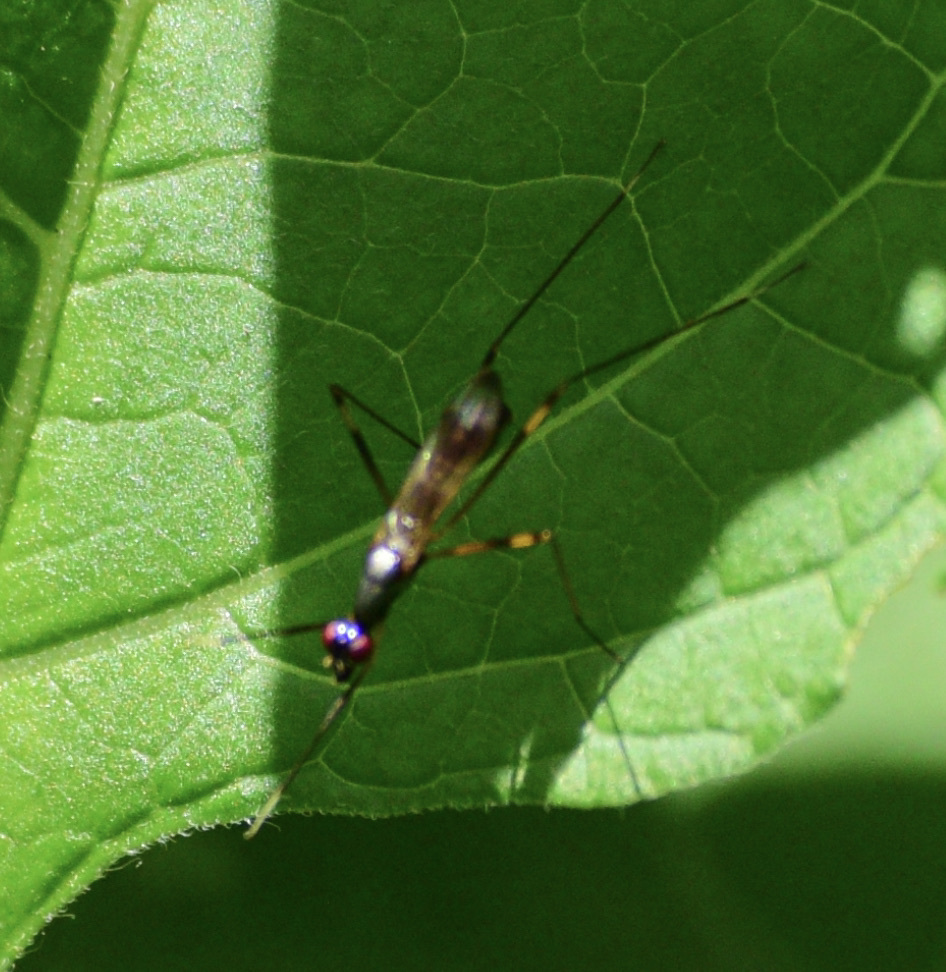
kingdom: Animalia
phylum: Arthropoda
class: Insecta
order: Diptera
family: Micropezidae
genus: Rainieria
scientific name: Rainieria antennaepes
